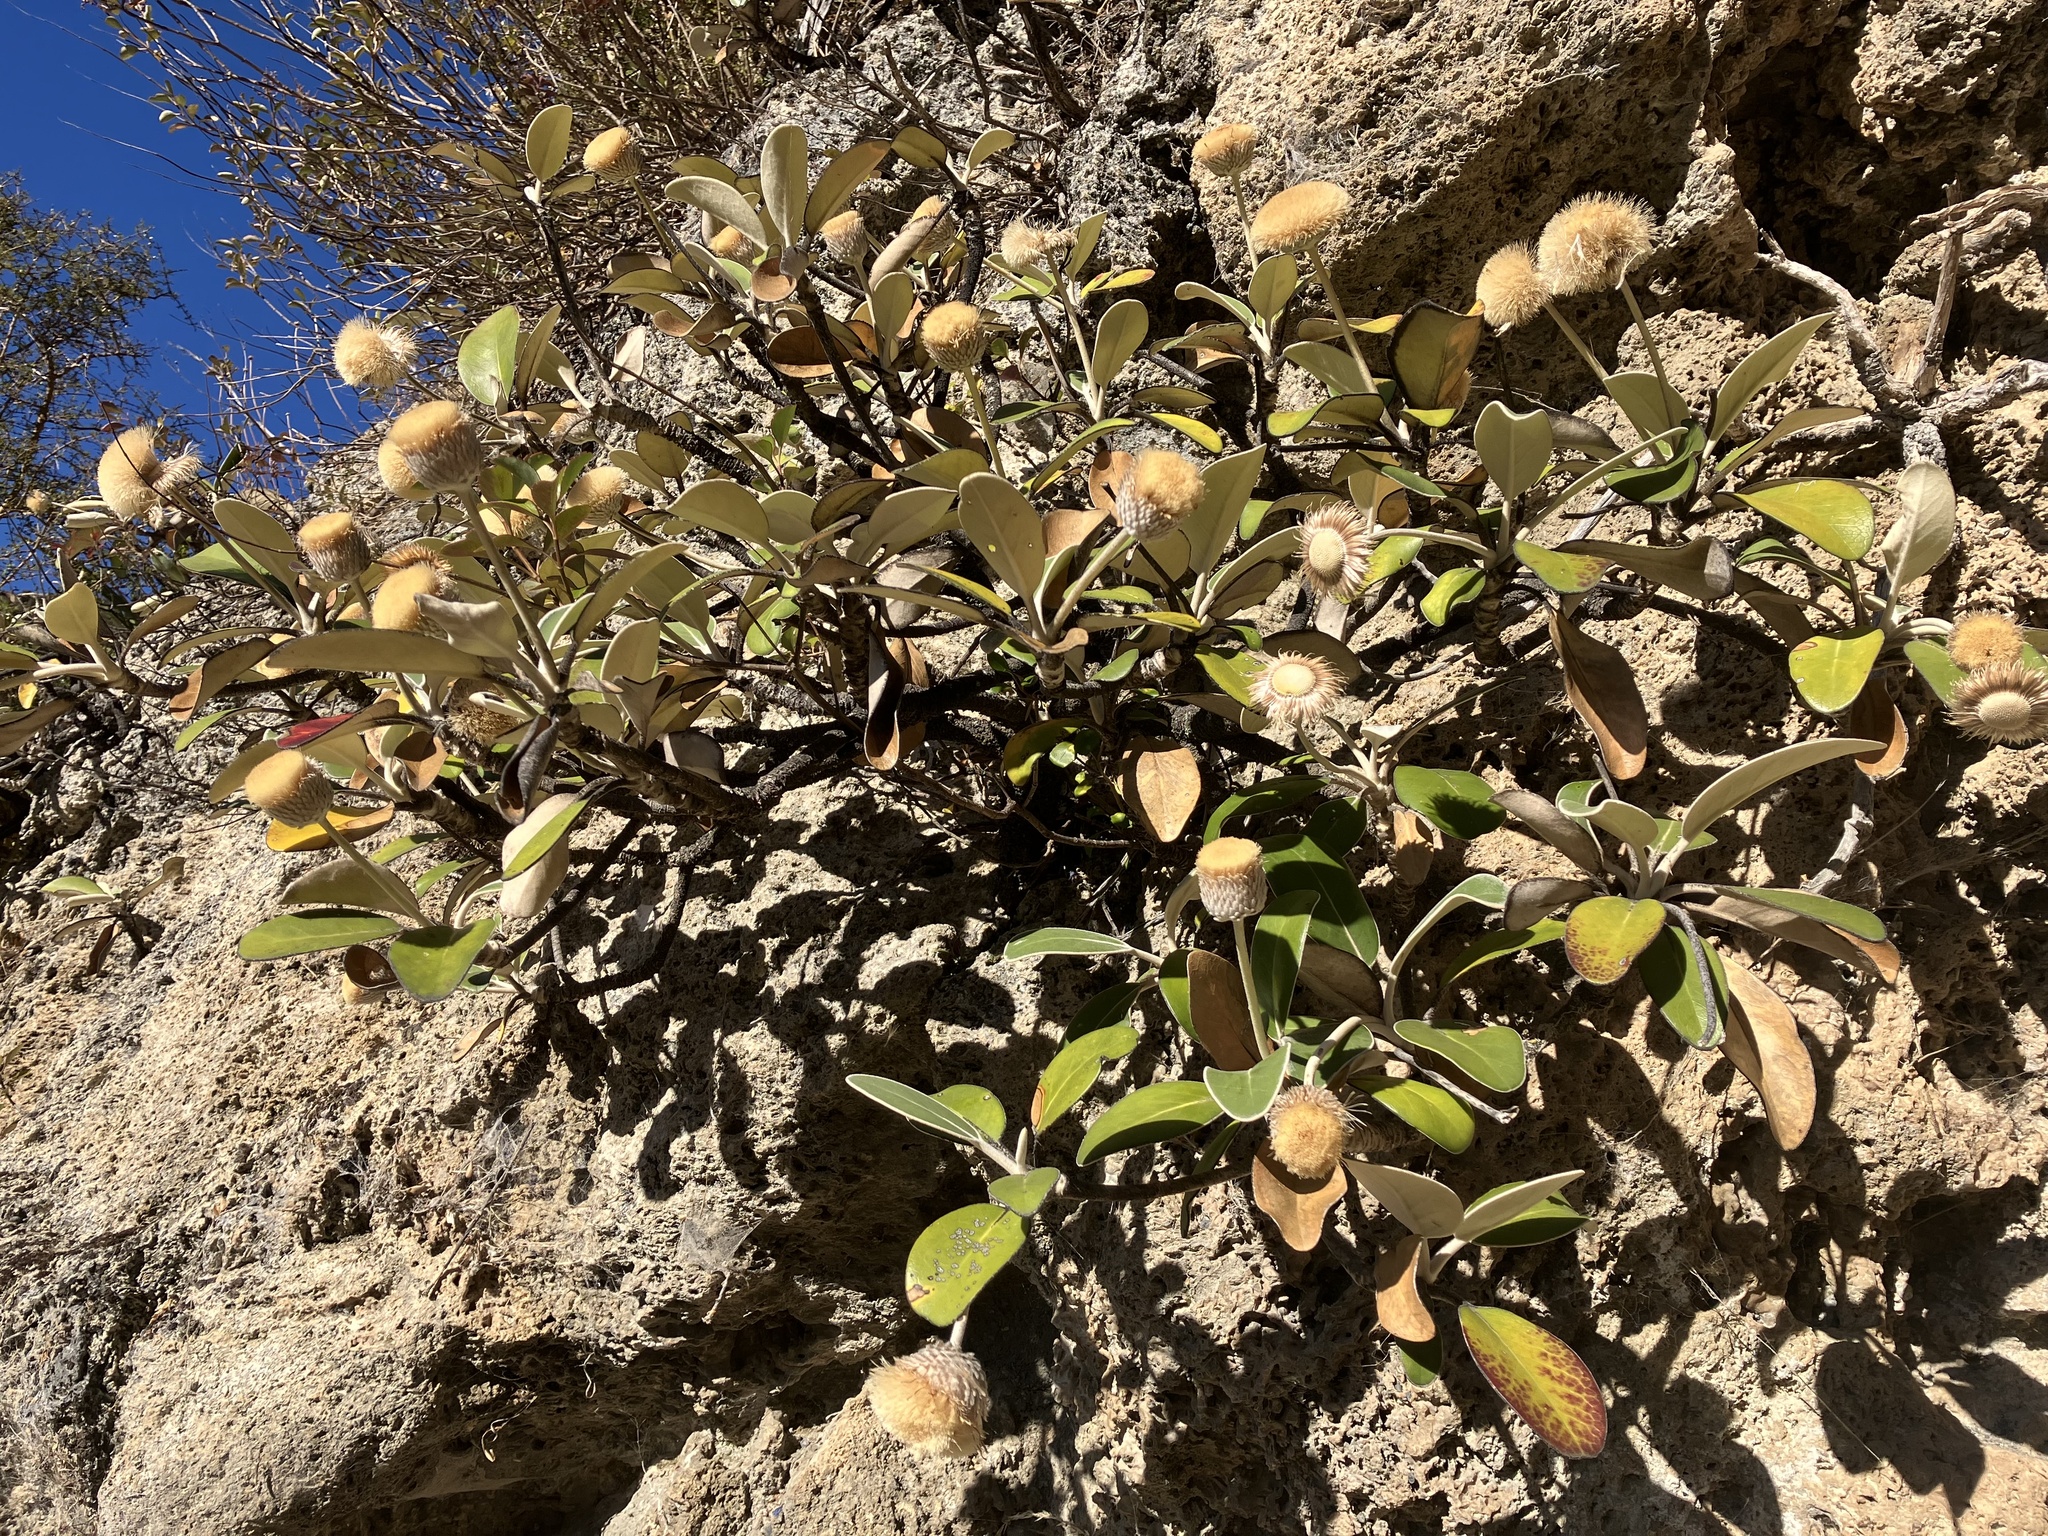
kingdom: Plantae
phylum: Tracheophyta
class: Magnoliopsida
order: Asterales
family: Asteraceae
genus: Pachystegia
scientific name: Pachystegia insignis
